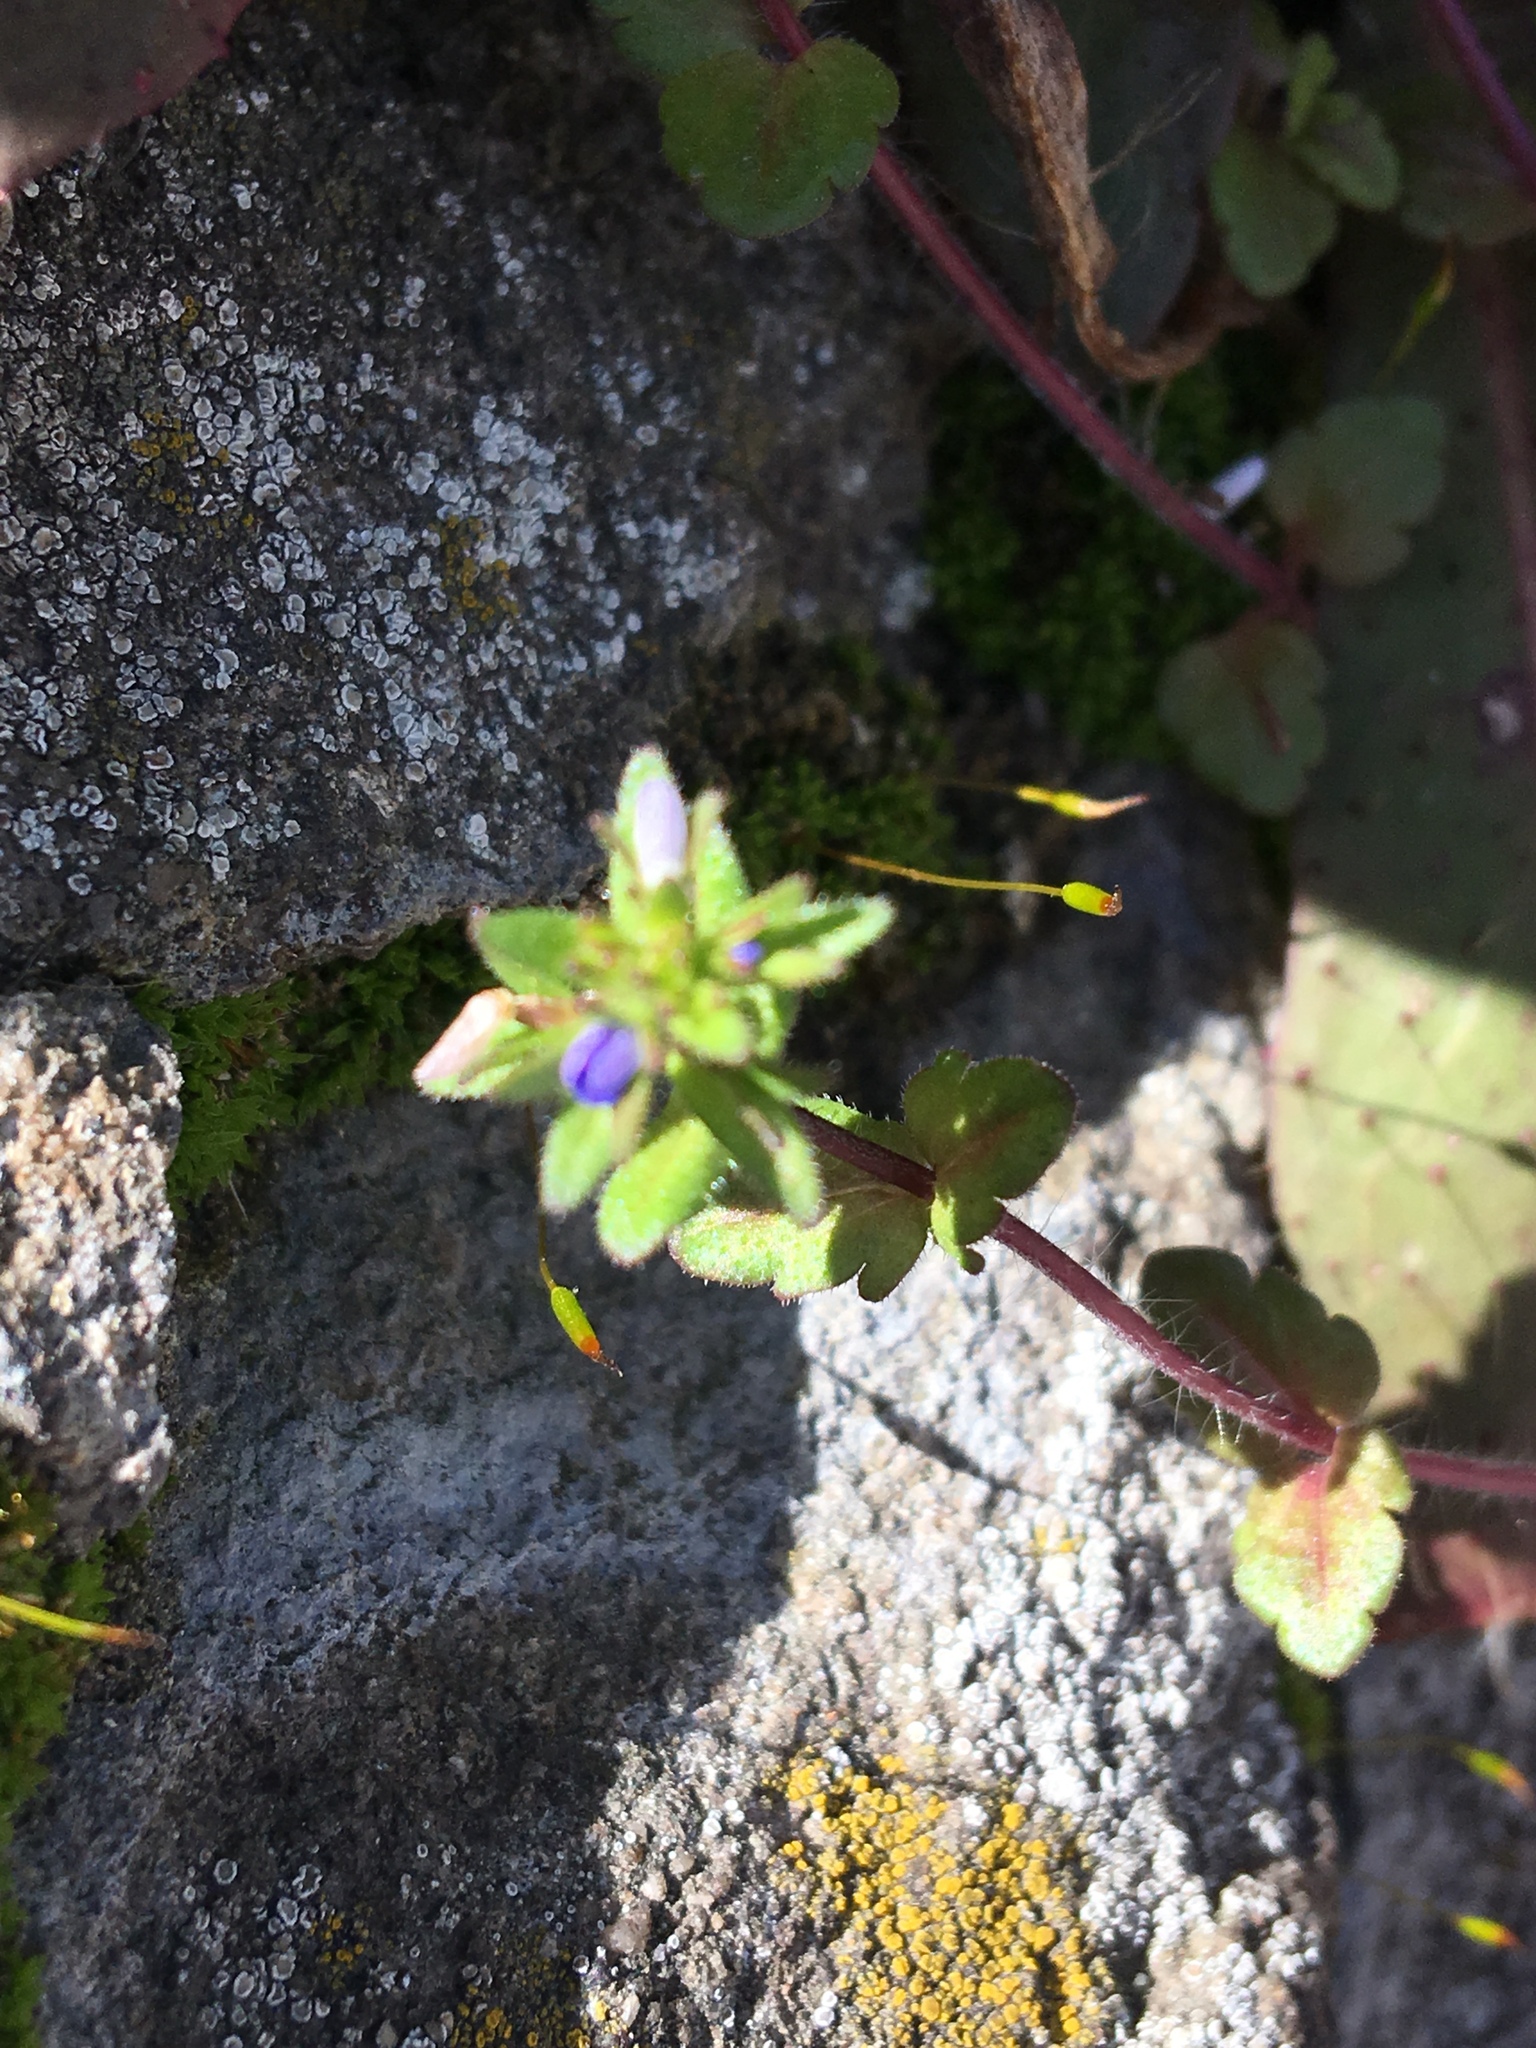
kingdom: Plantae
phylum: Tracheophyta
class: Magnoliopsida
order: Lamiales
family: Plantaginaceae
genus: Veronica
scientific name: Veronica arvensis
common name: Corn speedwell
